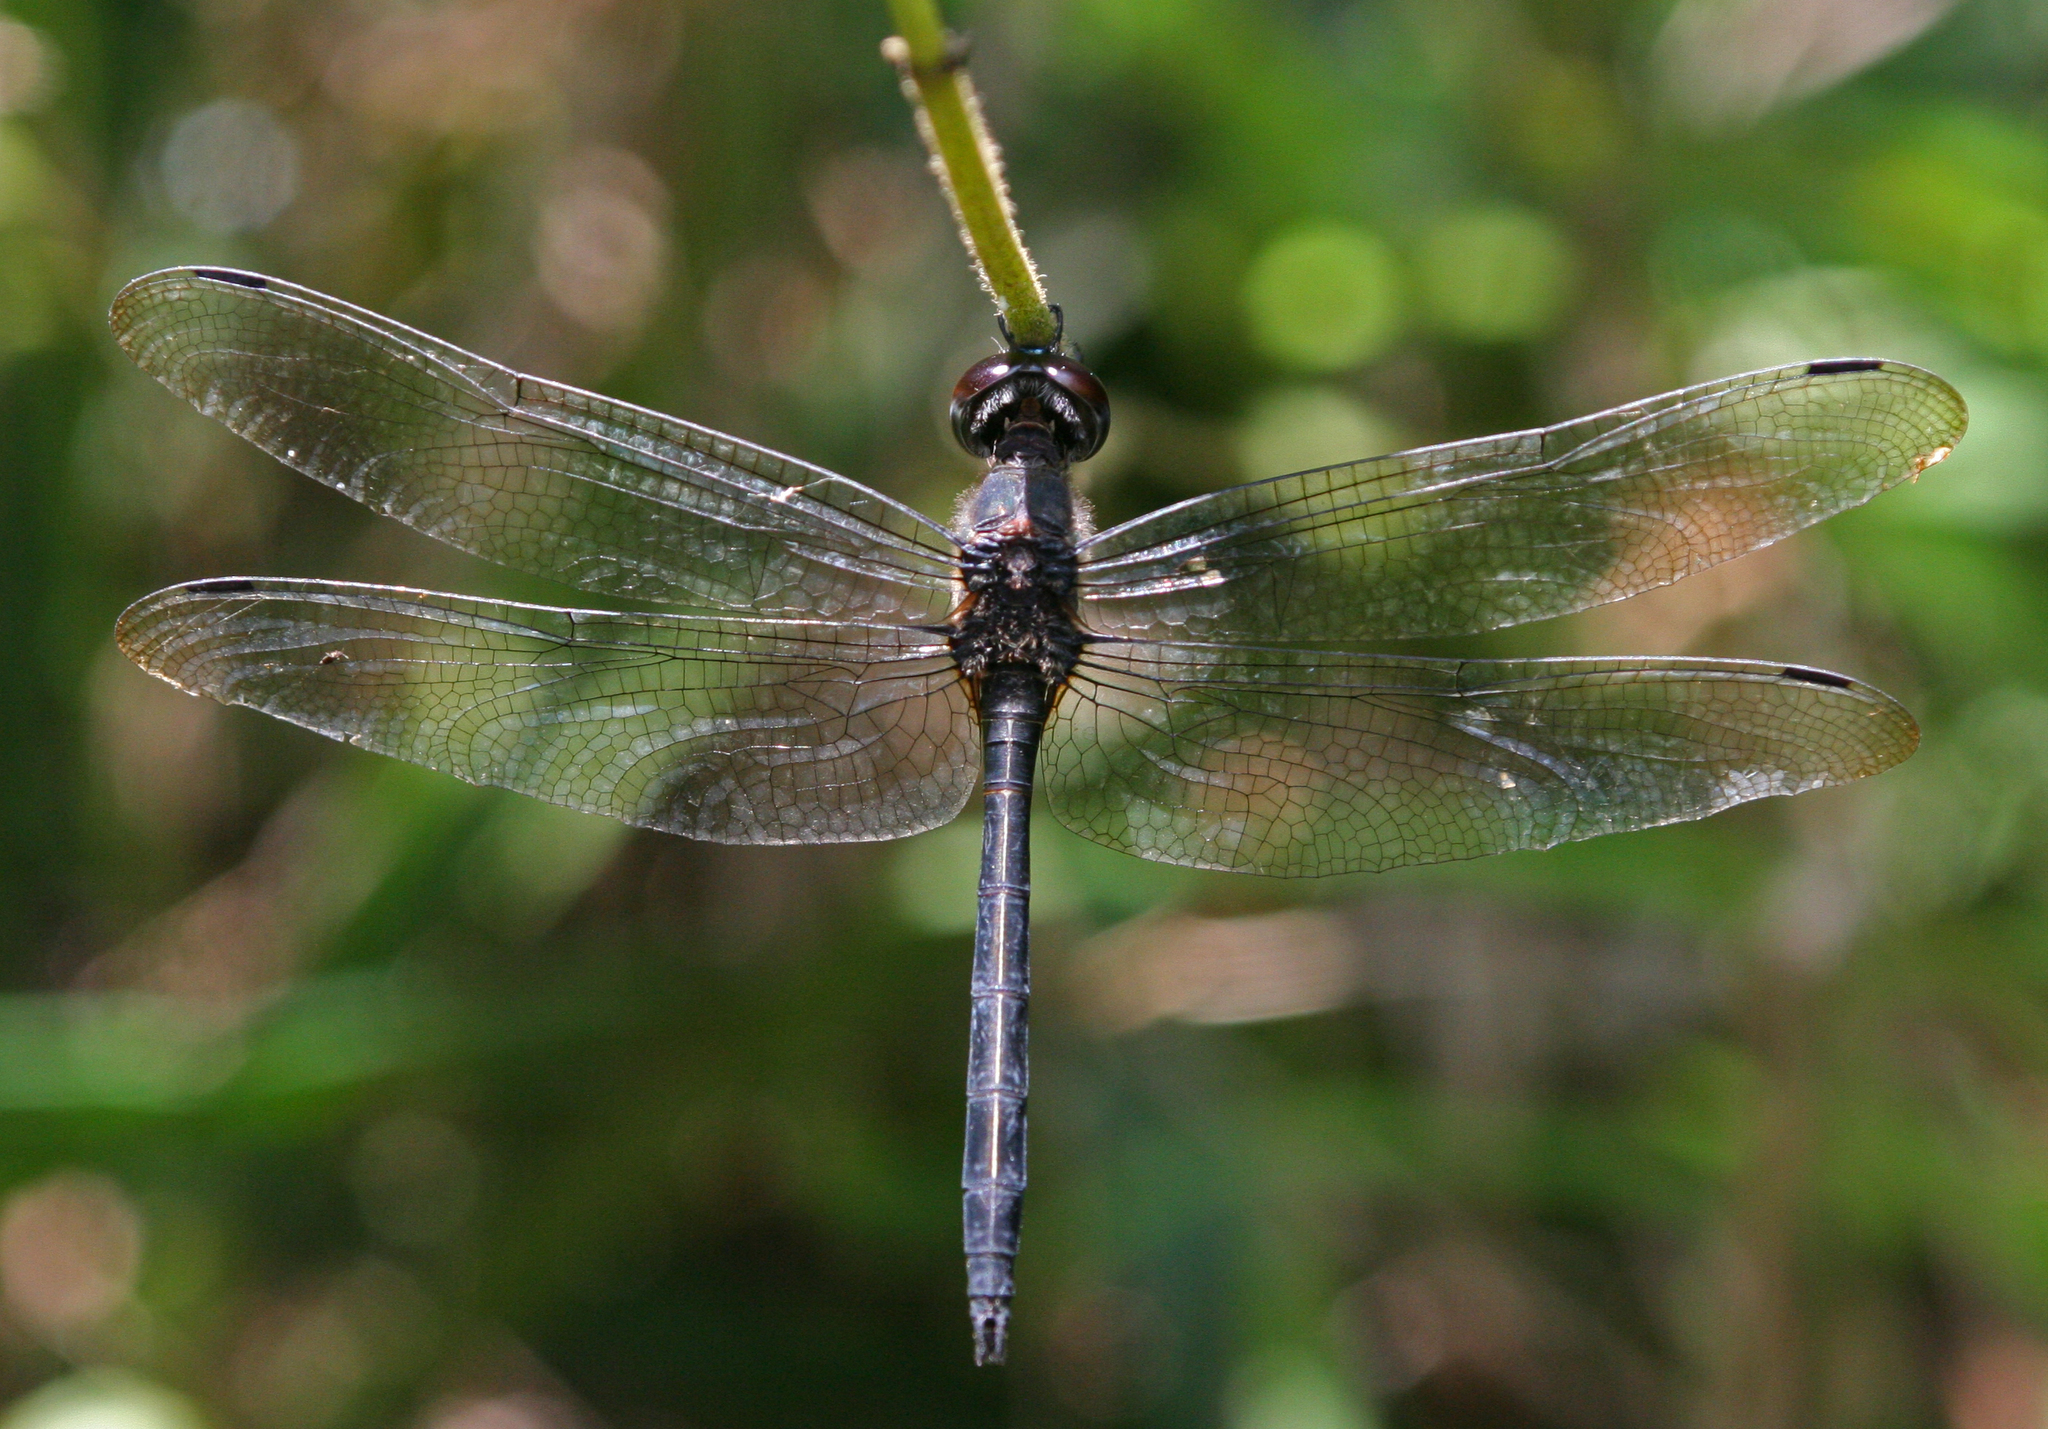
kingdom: Animalia
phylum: Arthropoda
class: Insecta
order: Odonata
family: Libellulidae
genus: Zygonyx
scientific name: Zygonyx iris
